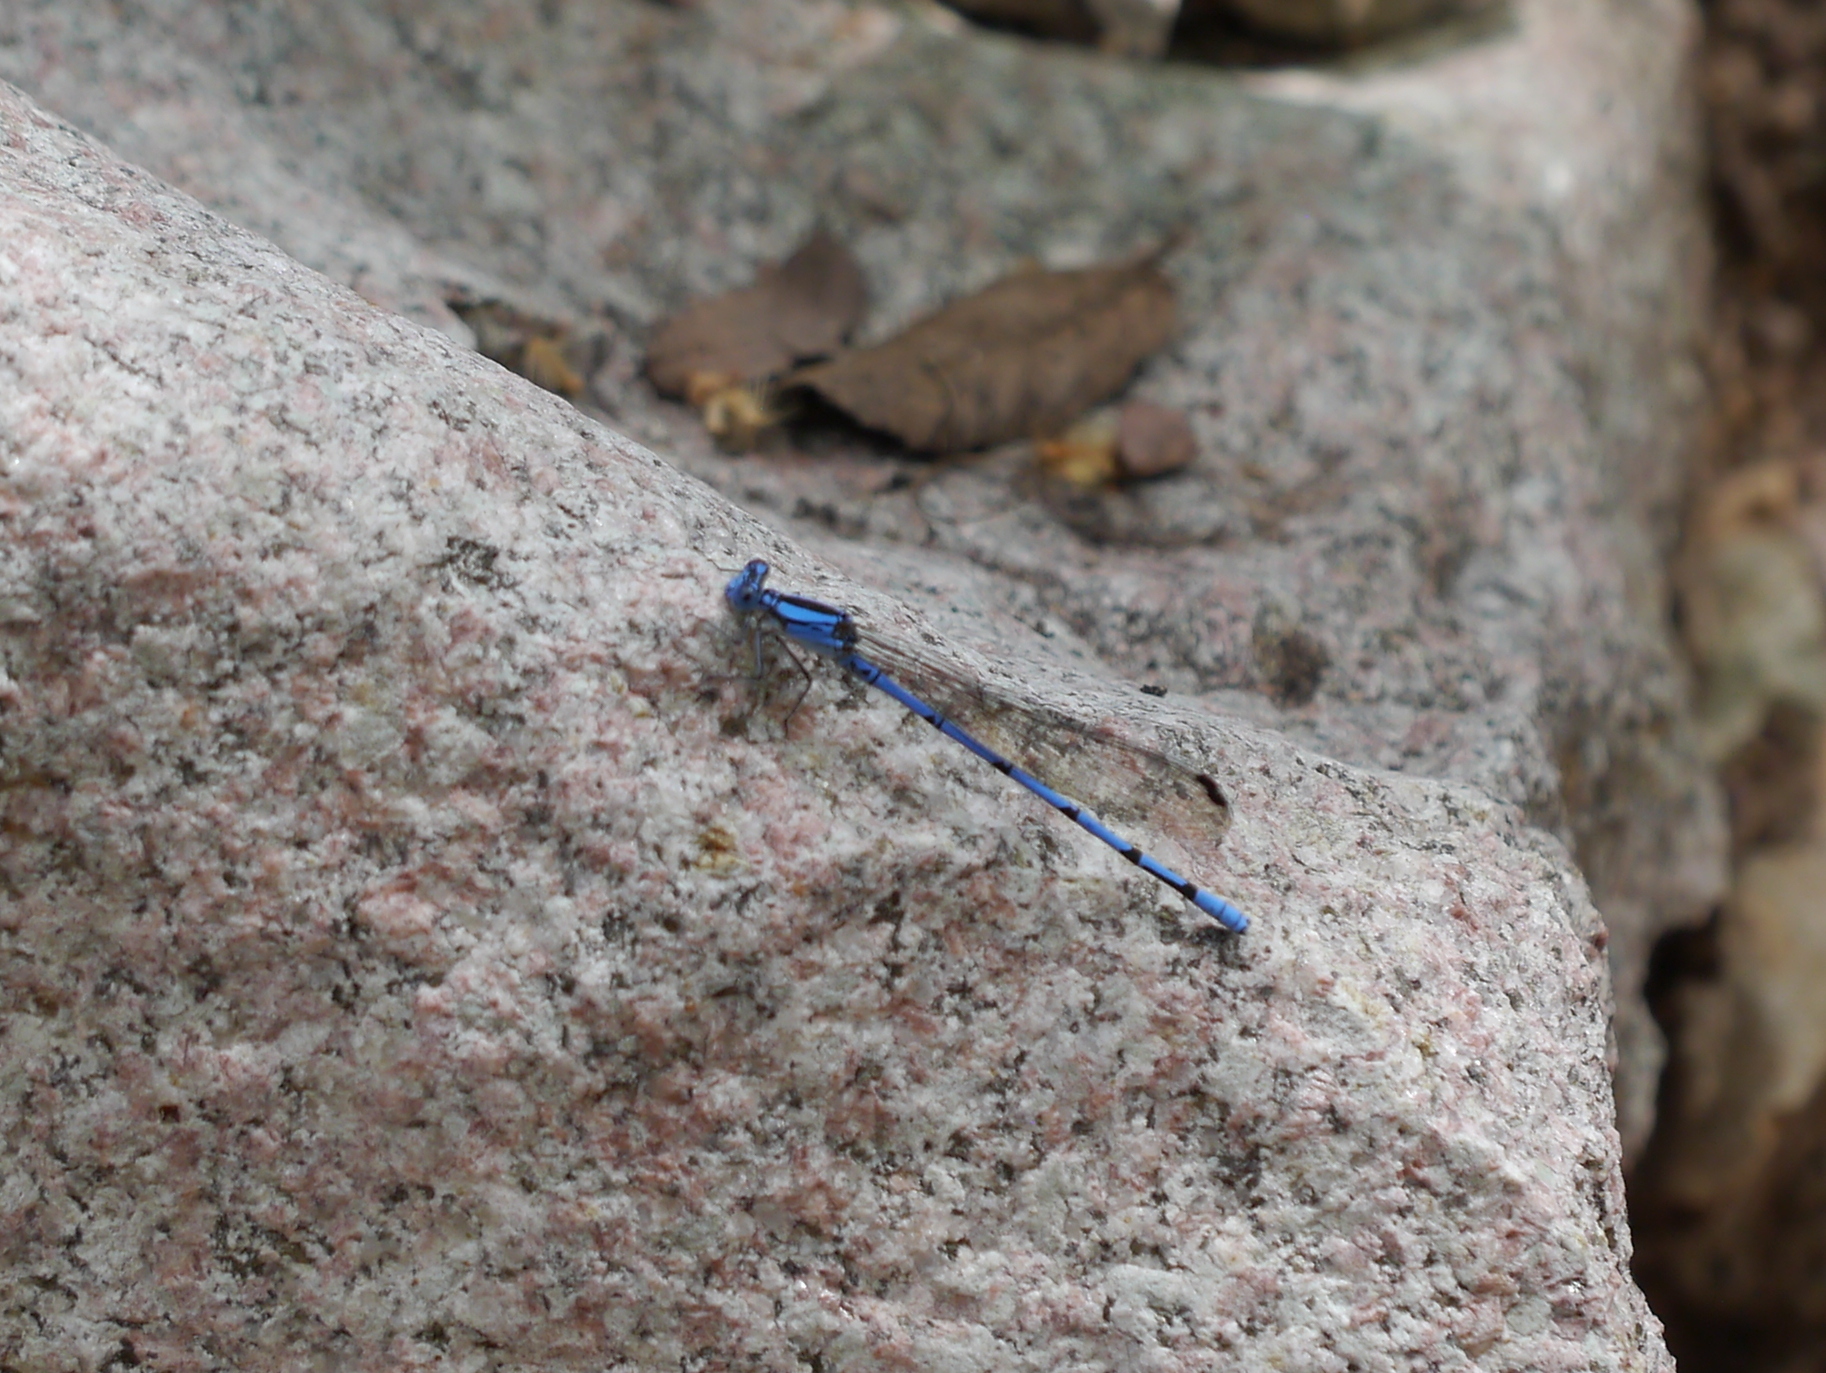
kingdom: Animalia
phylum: Arthropoda
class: Insecta
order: Odonata
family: Coenagrionidae
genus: Argia
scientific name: Argia lacrimans
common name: Sierra madre dancer
